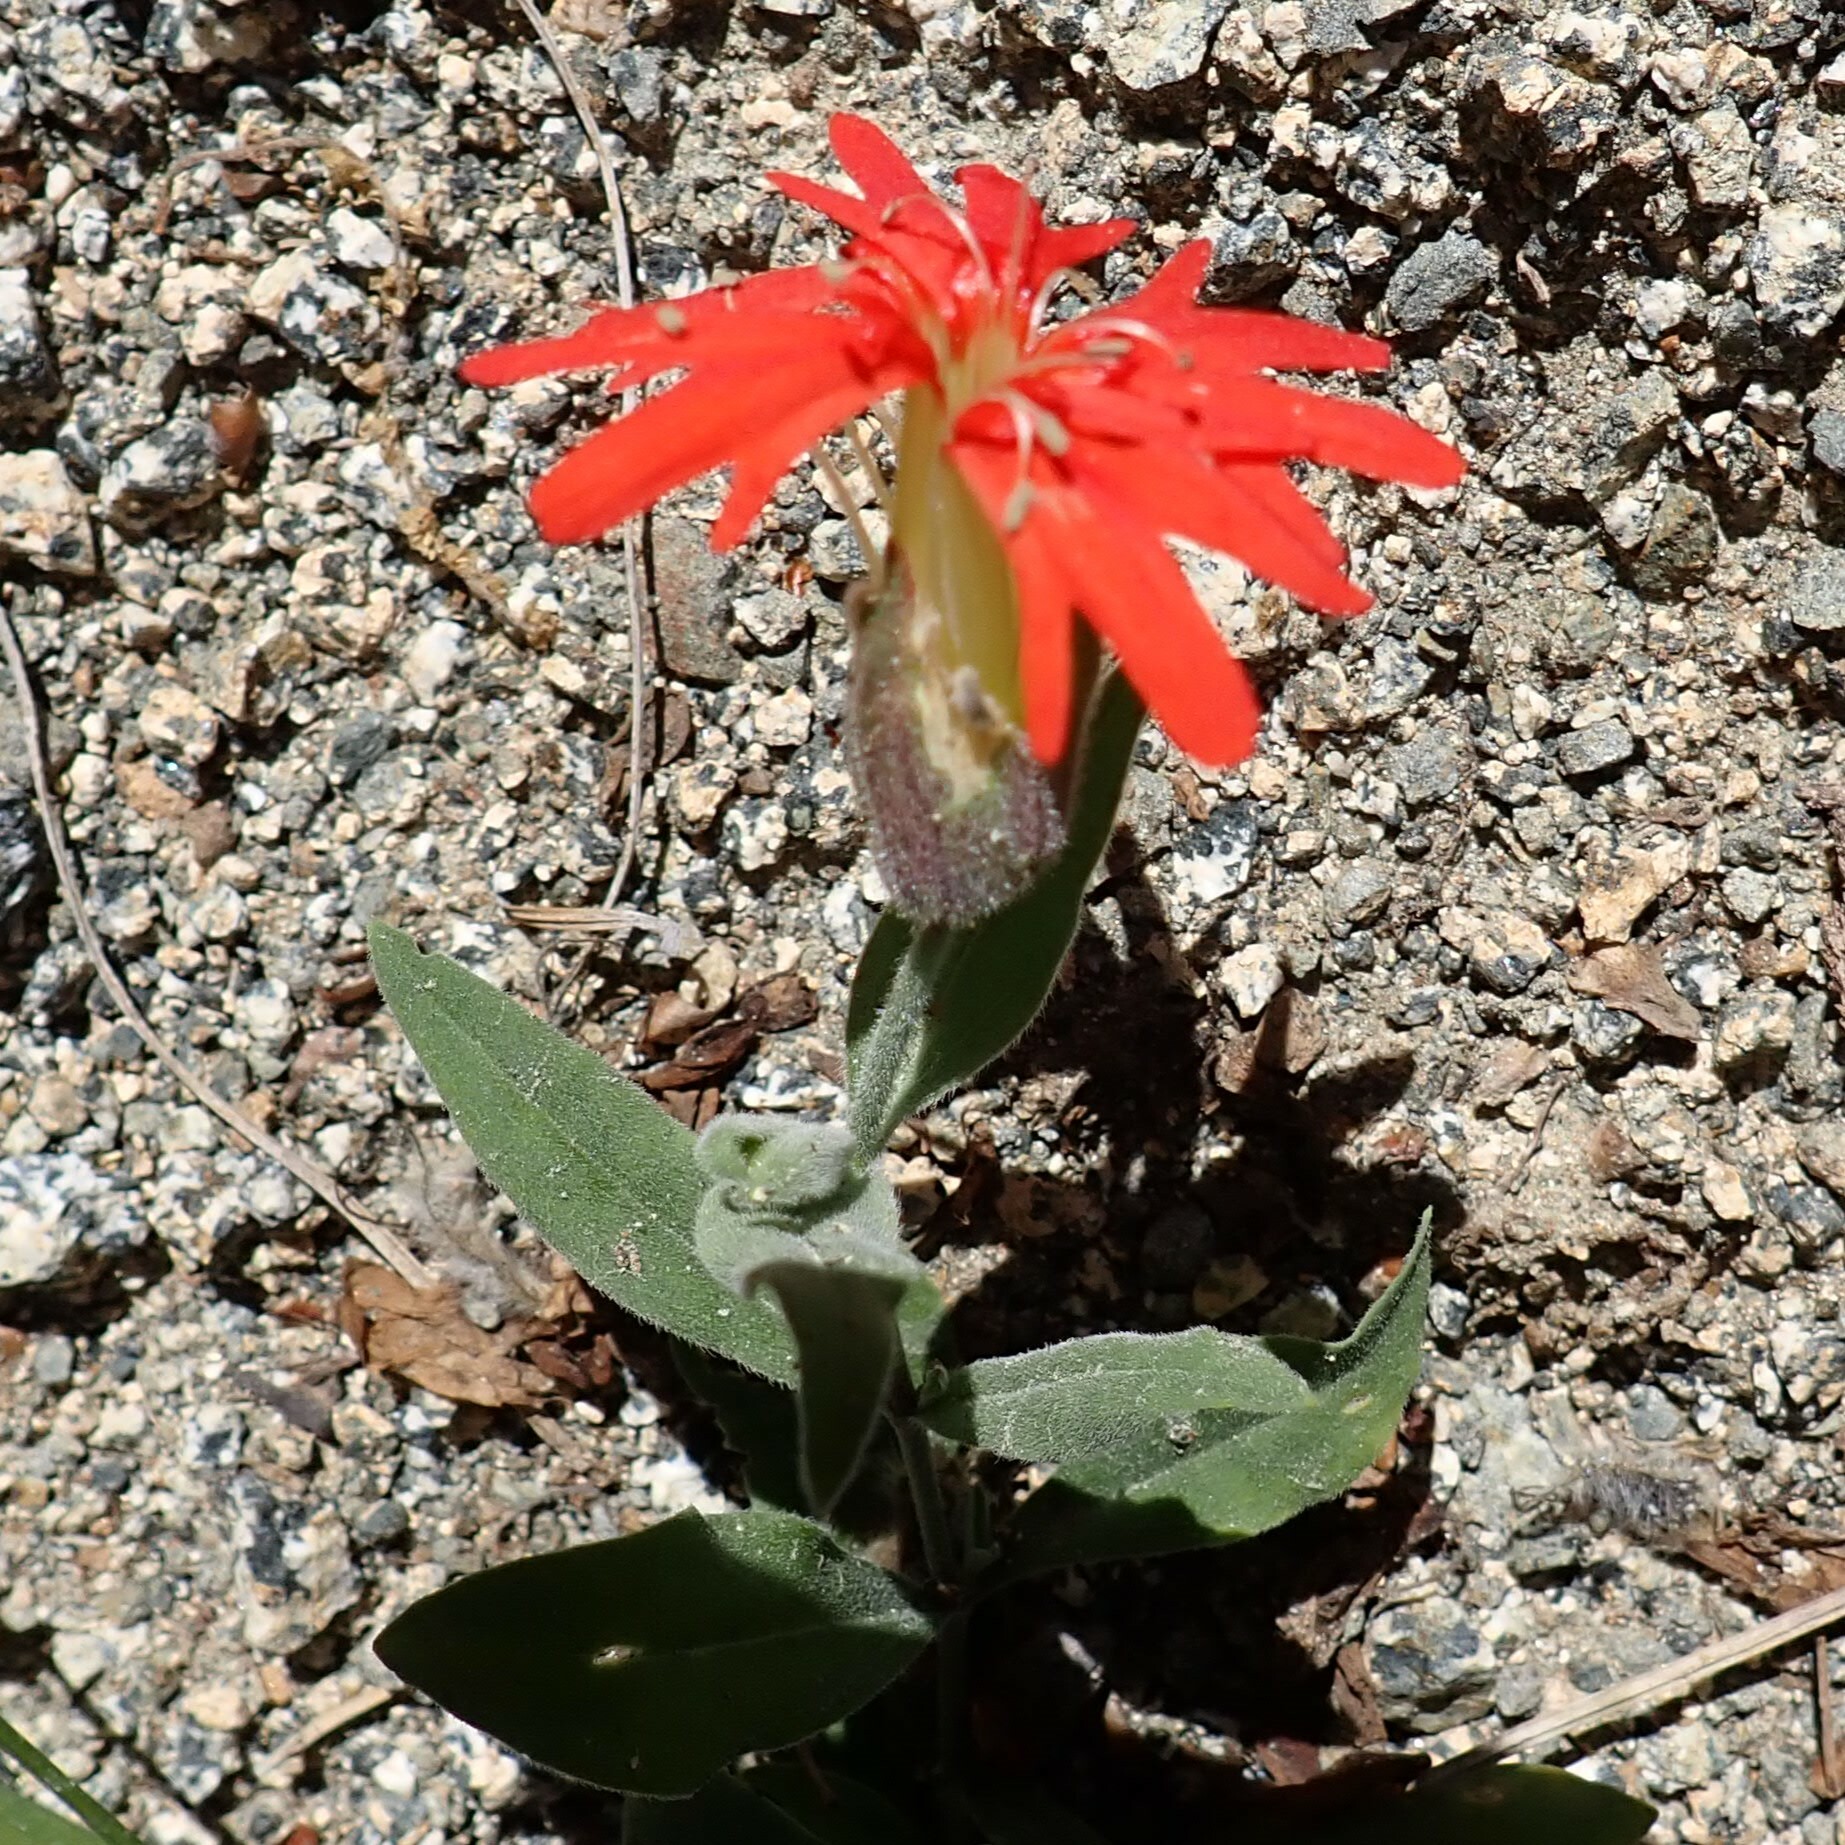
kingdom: Plantae
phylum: Tracheophyta
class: Magnoliopsida
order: Caryophyllales
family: Caryophyllaceae
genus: Silene
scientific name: Silene laciniata
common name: Indian-pink
